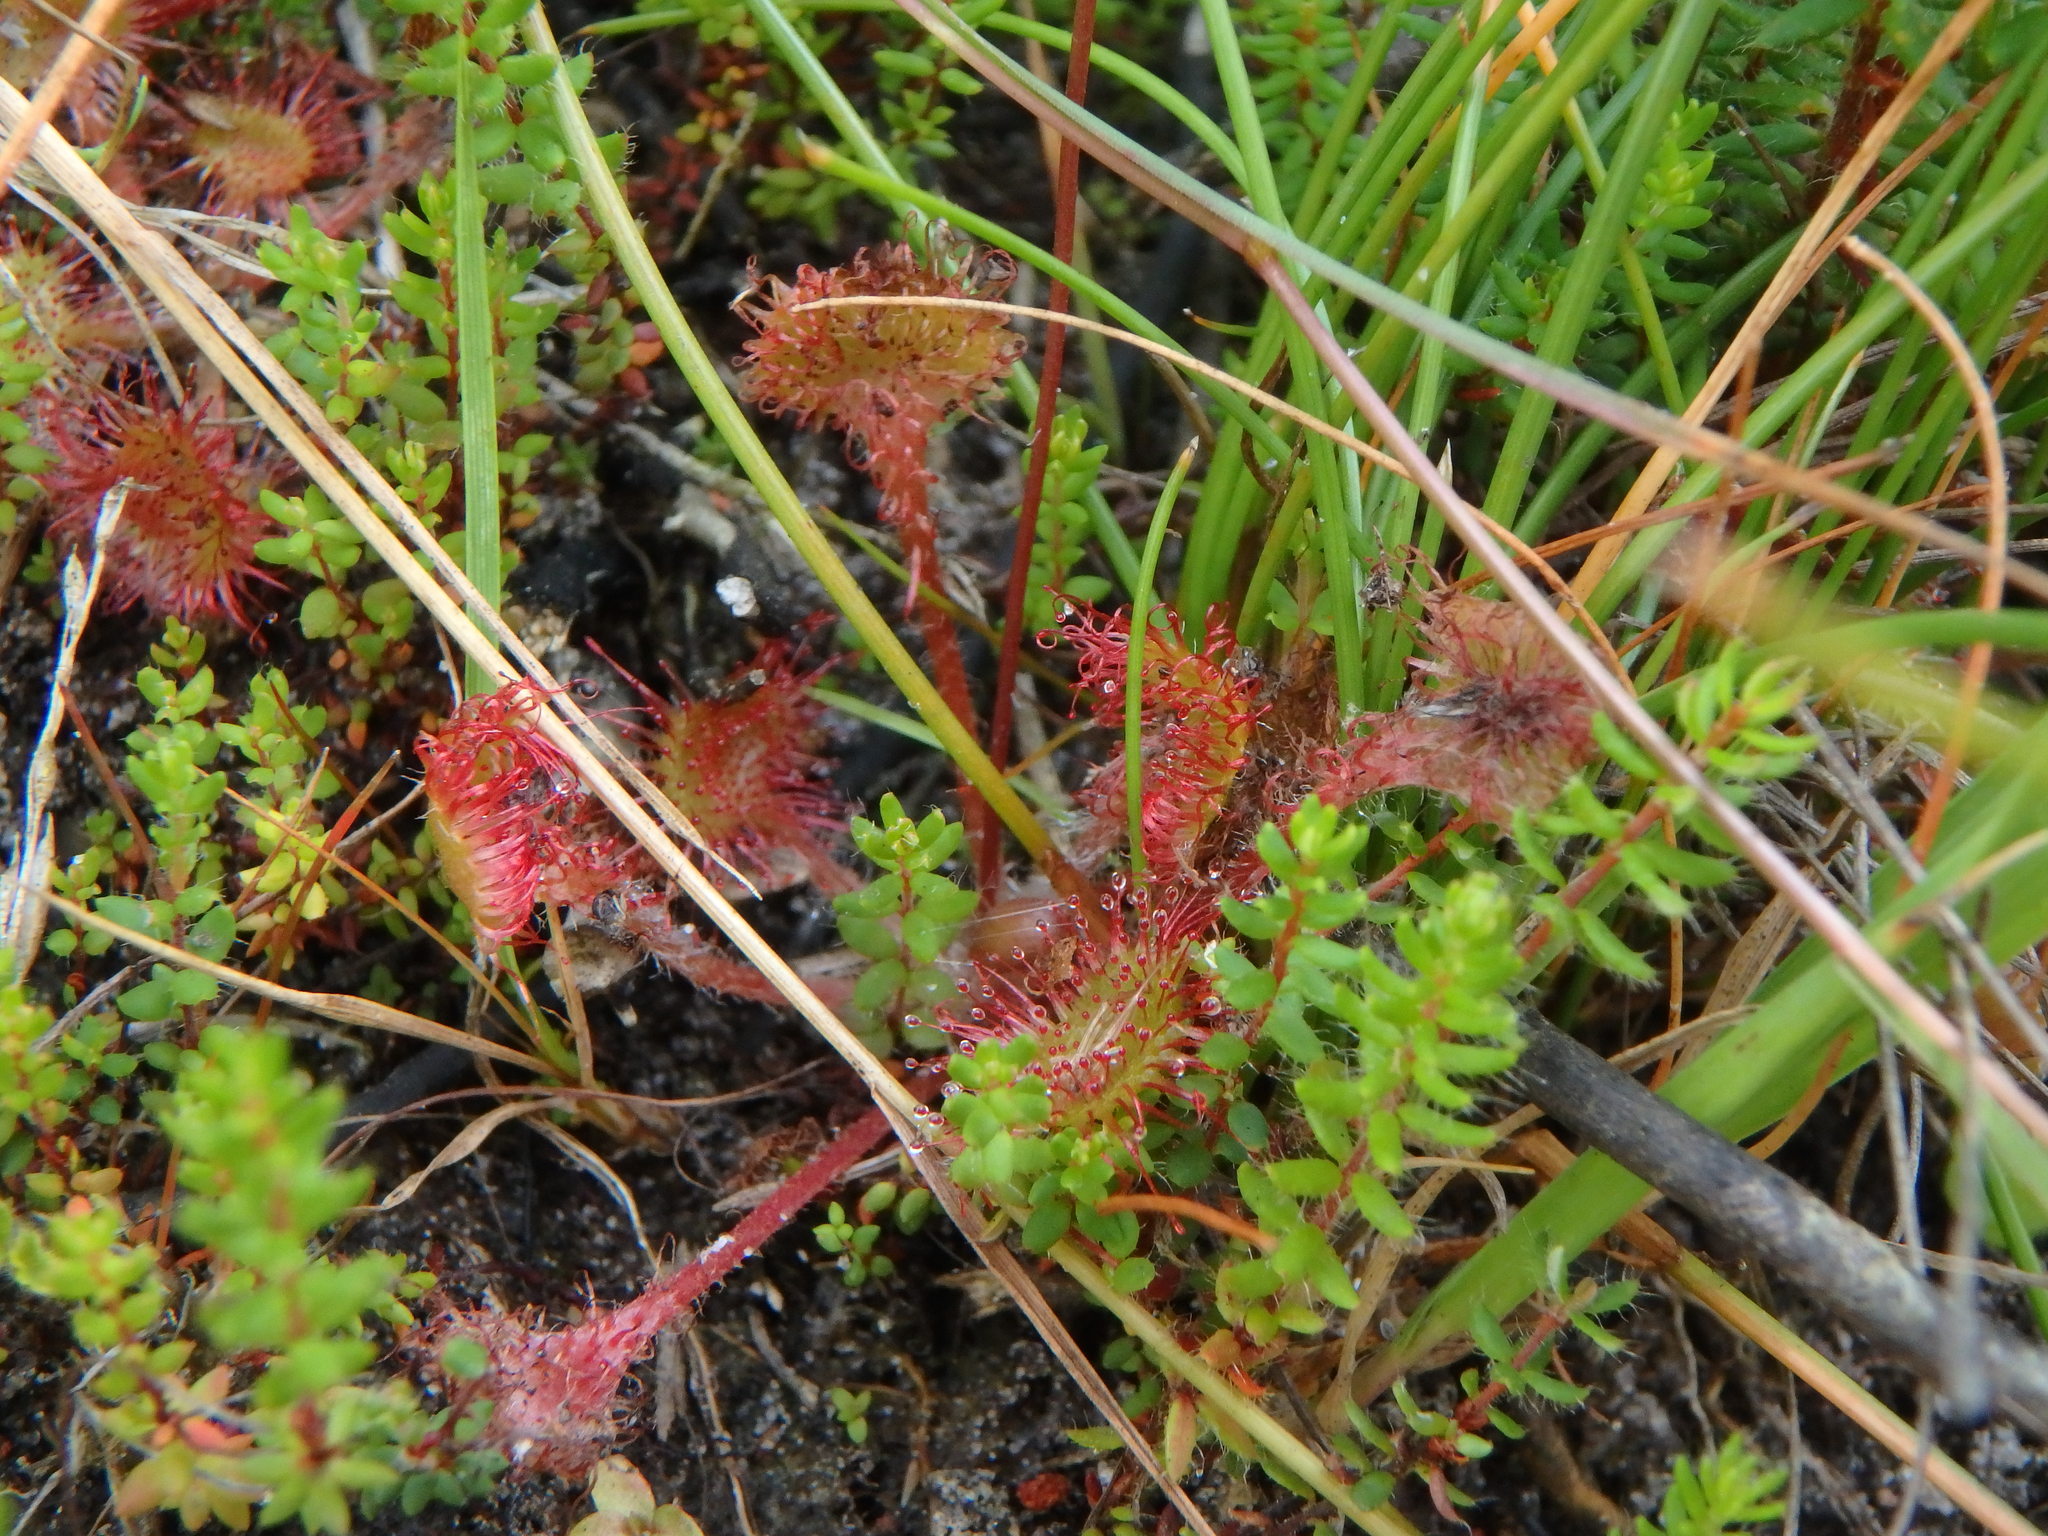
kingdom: Plantae
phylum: Tracheophyta
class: Magnoliopsida
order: Caryophyllales
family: Droseraceae
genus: Drosera
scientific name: Drosera rotundifolia
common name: Round-leaved sundew
